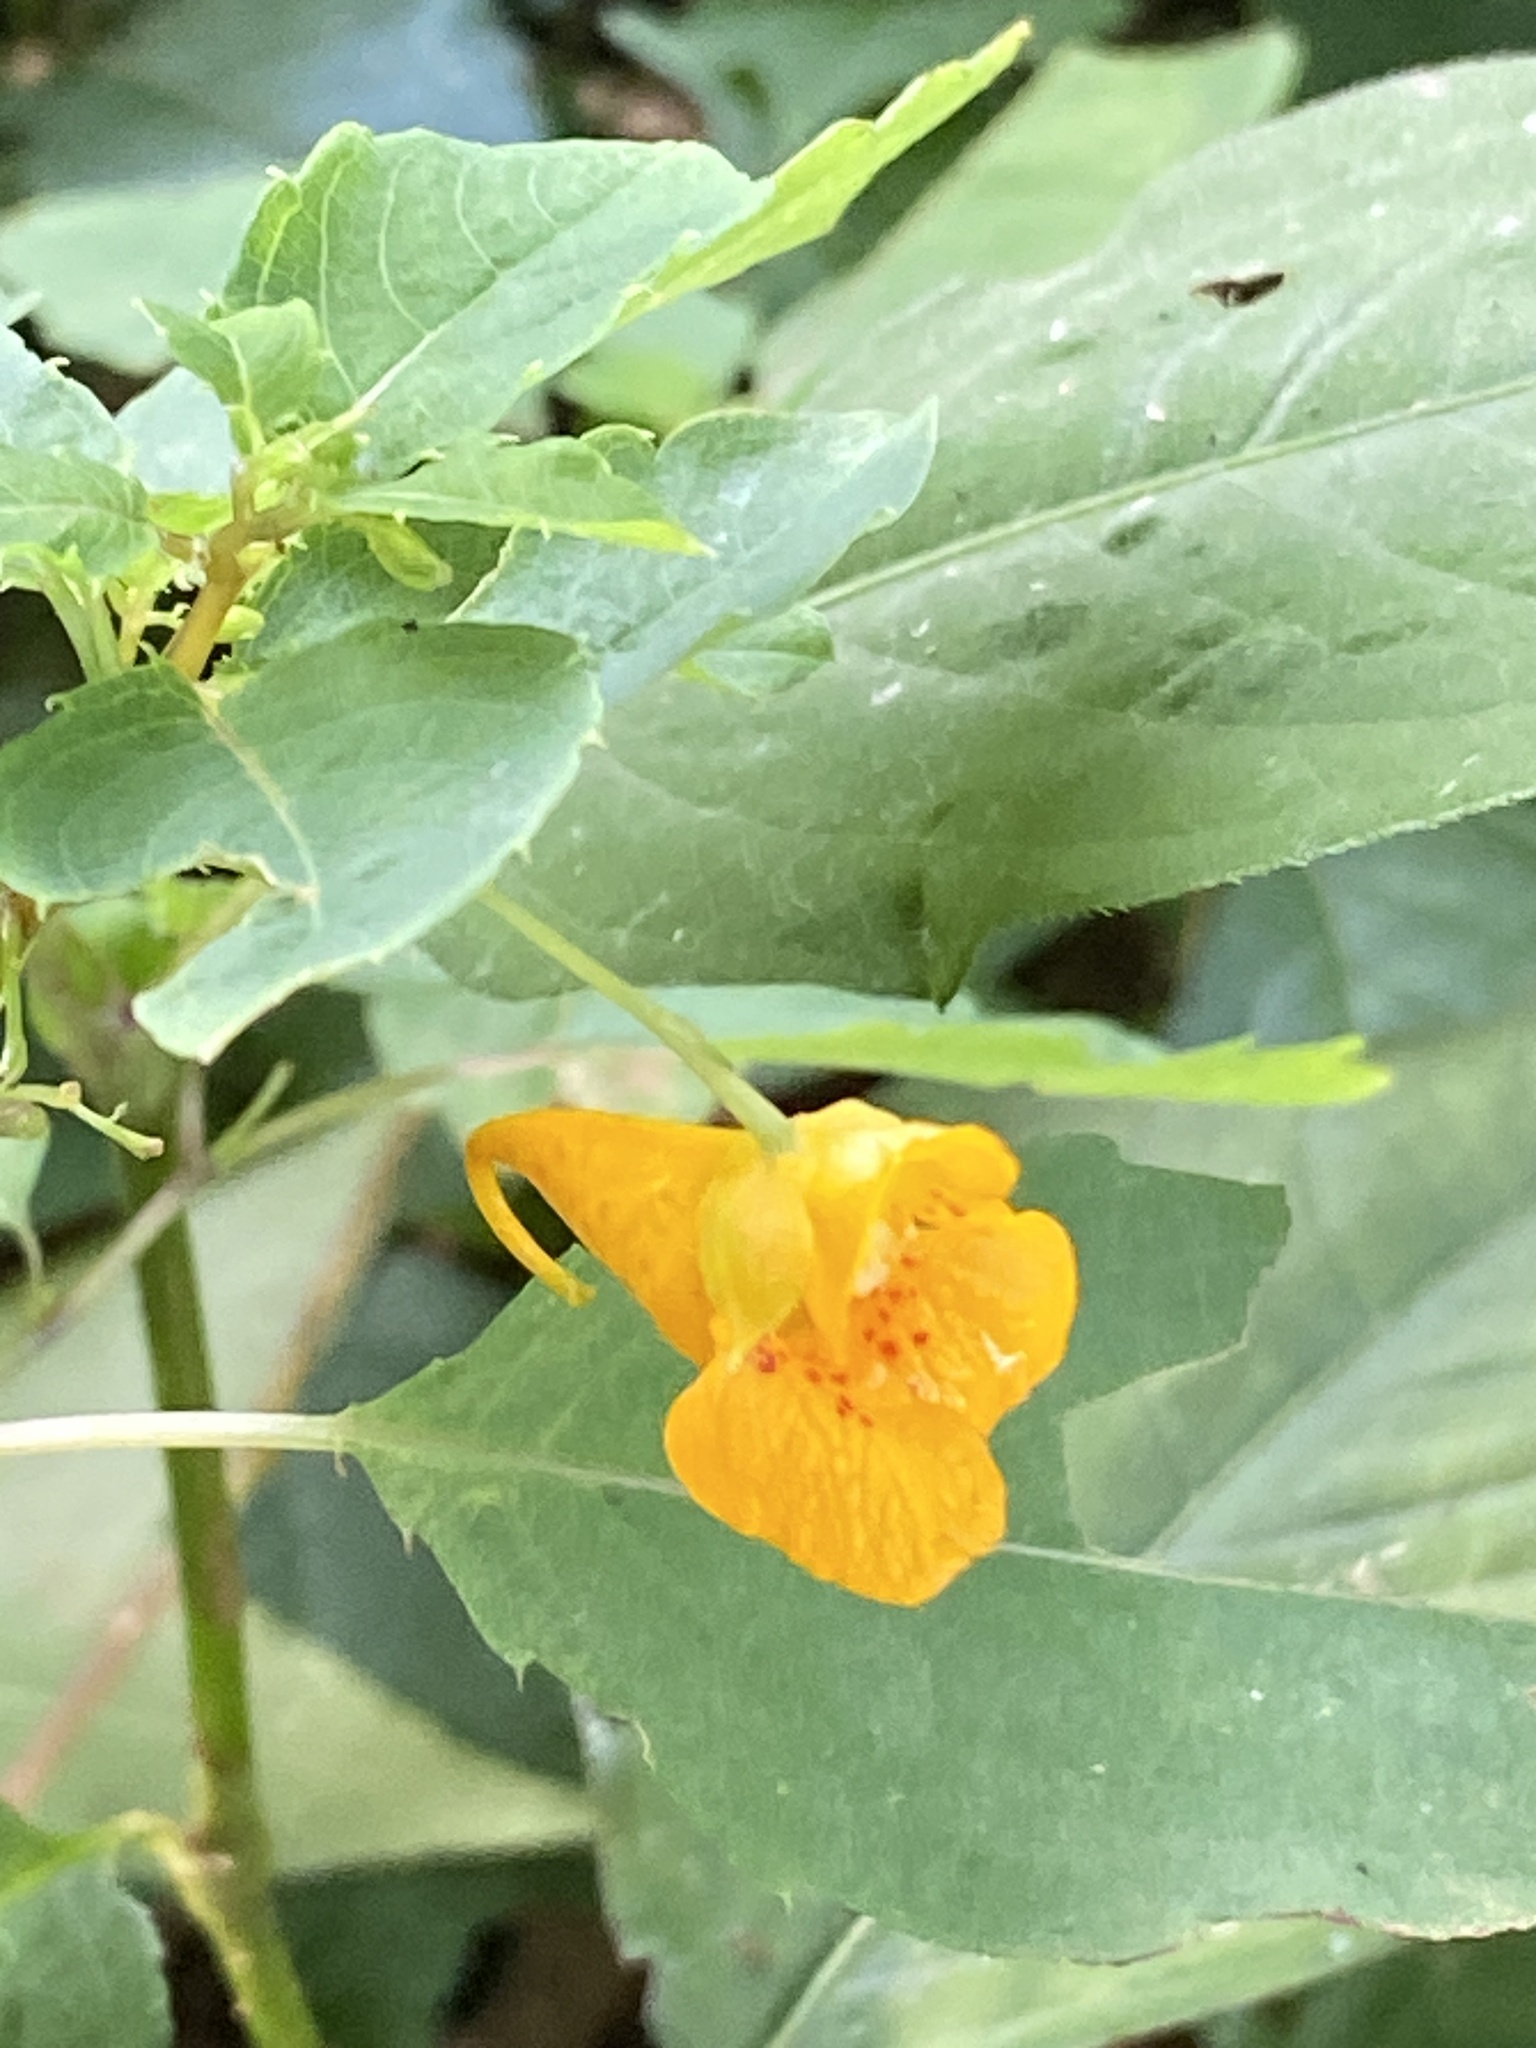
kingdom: Plantae
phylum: Tracheophyta
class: Magnoliopsida
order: Ericales
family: Balsaminaceae
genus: Impatiens
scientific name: Impatiens capensis
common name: Orange balsam
